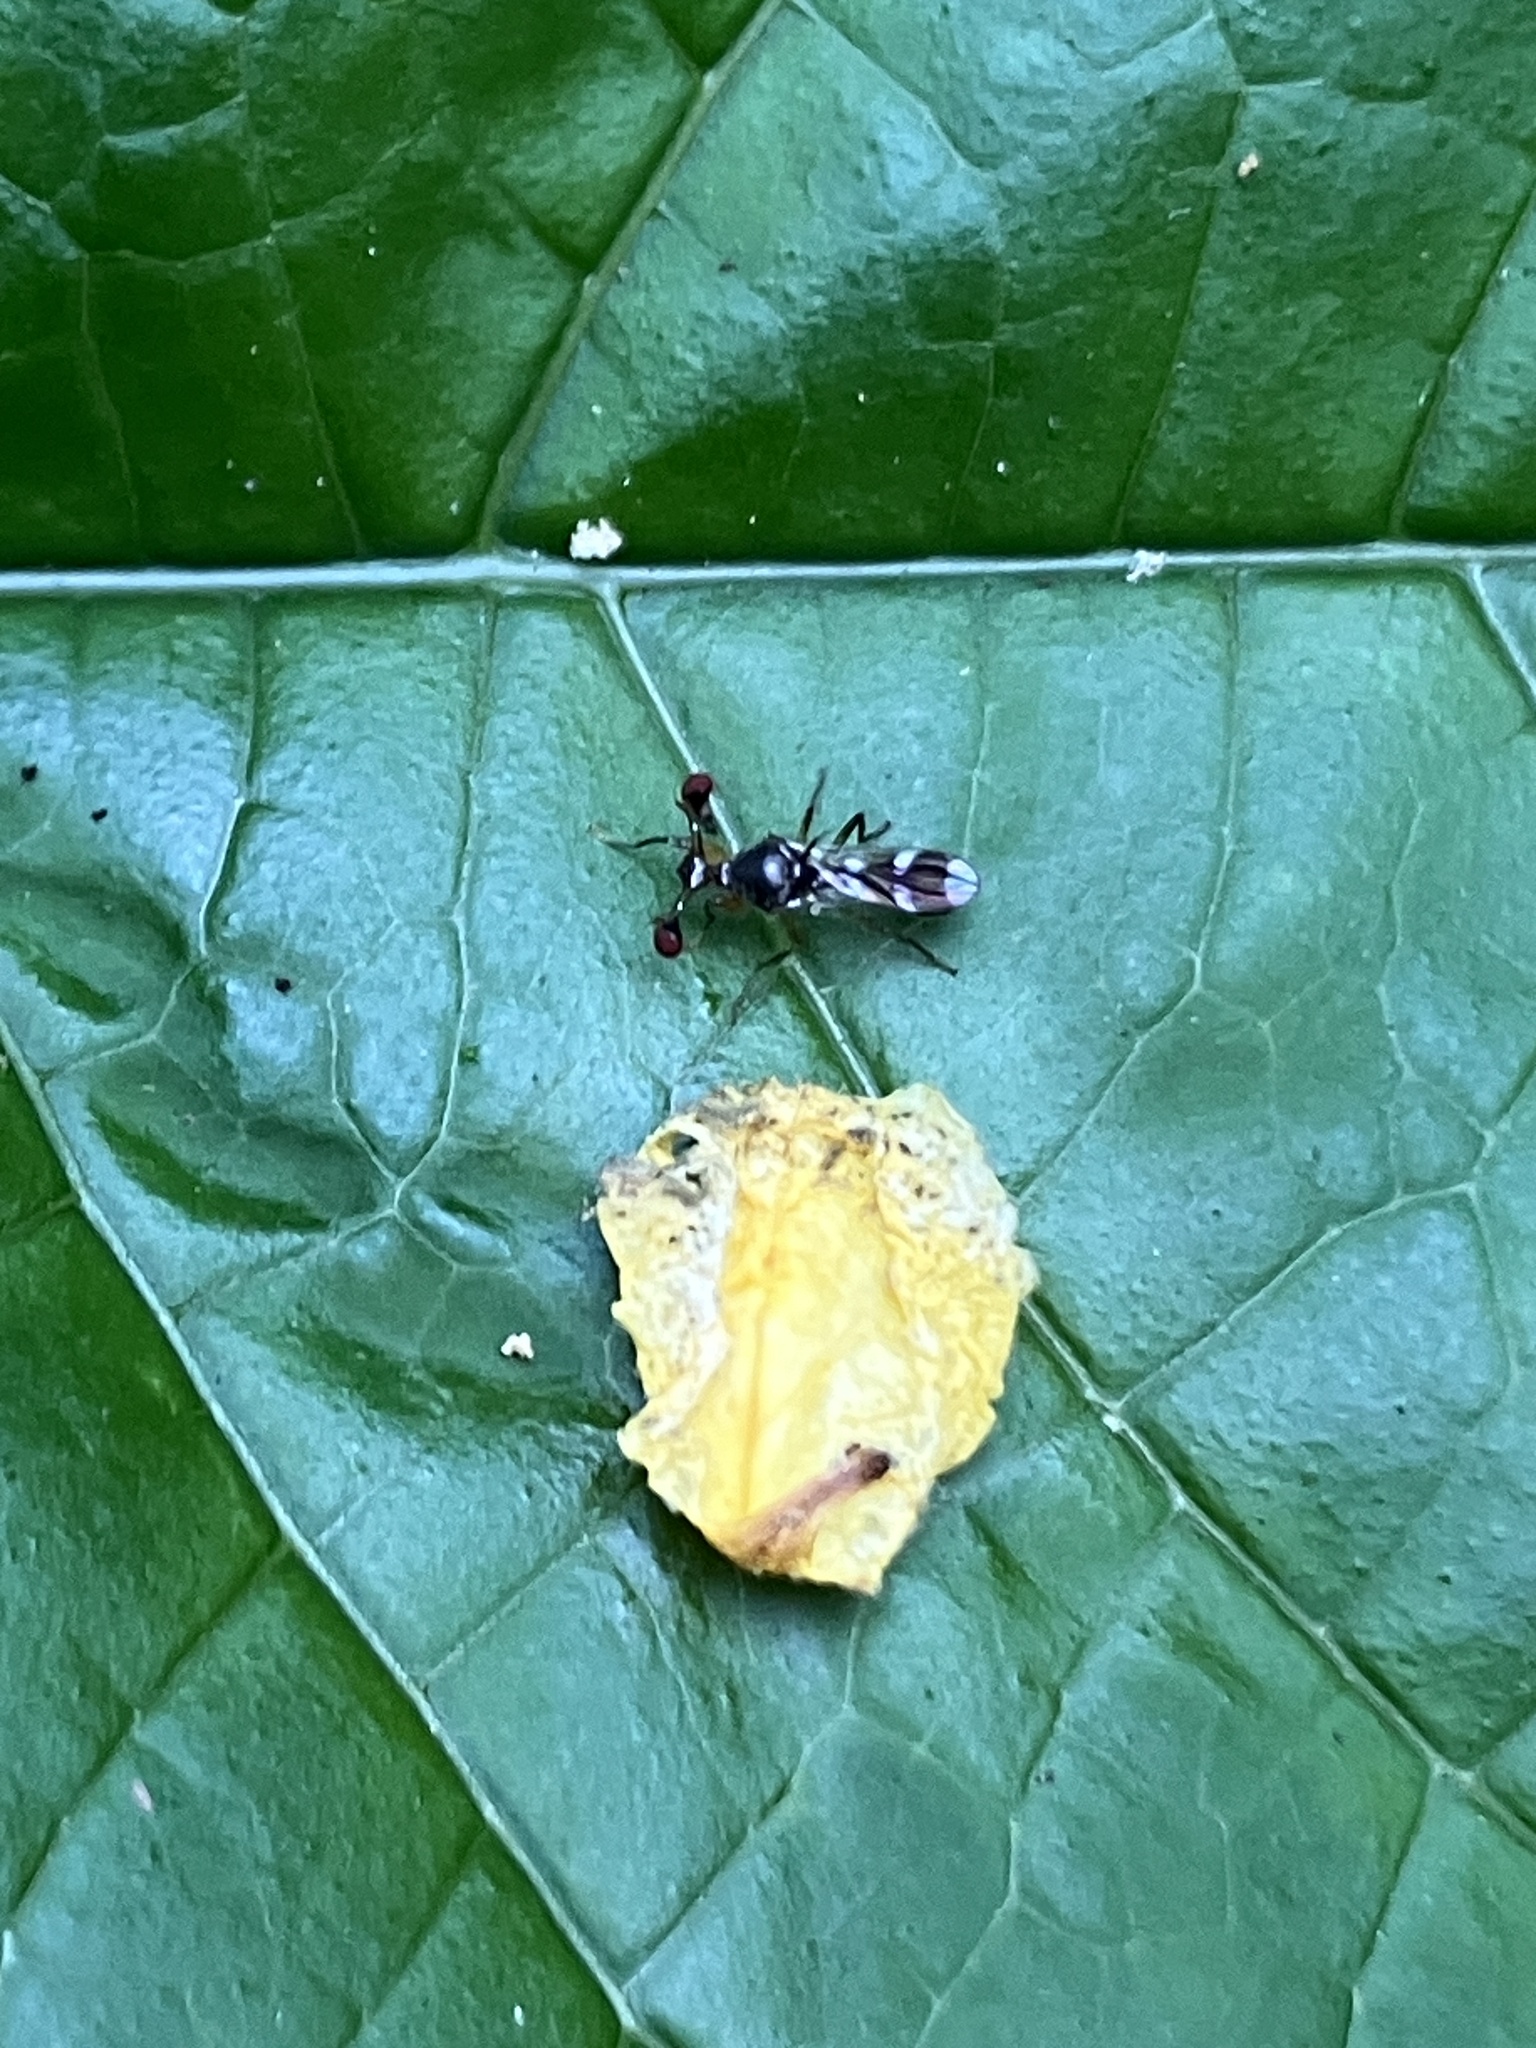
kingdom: Animalia
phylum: Arthropoda
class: Insecta
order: Diptera
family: Diopsidae
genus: Megalabops
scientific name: Megalabops
